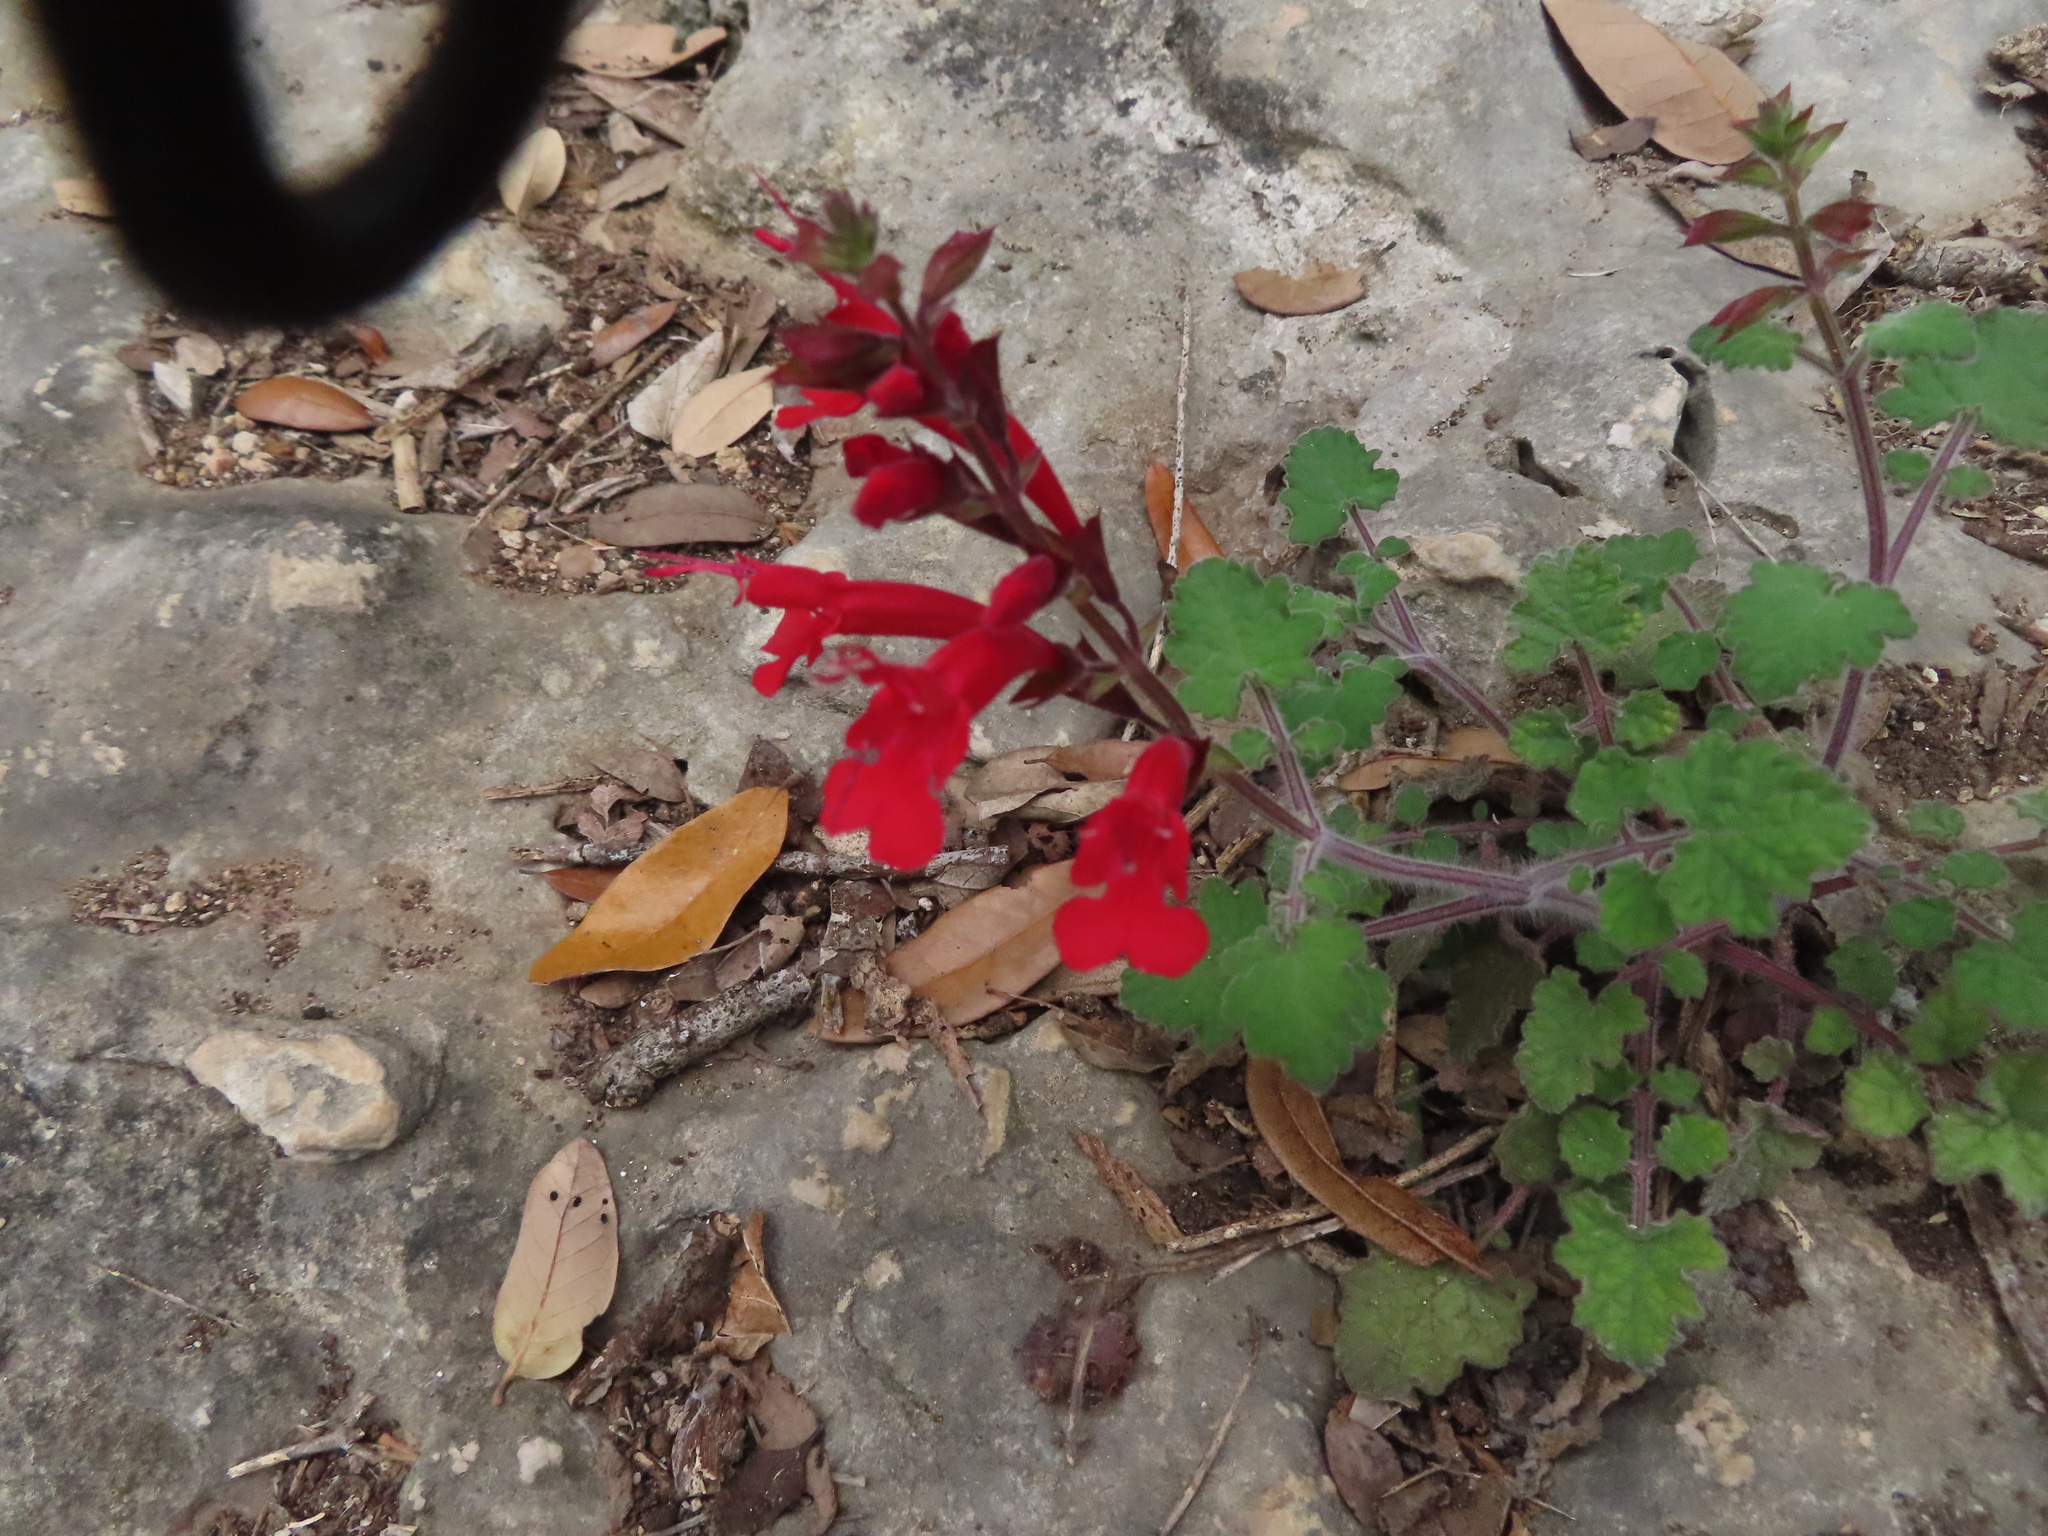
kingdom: Plantae
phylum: Tracheophyta
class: Magnoliopsida
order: Lamiales
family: Lamiaceae
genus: Salvia
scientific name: Salvia roemeriana
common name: Cedar sage
